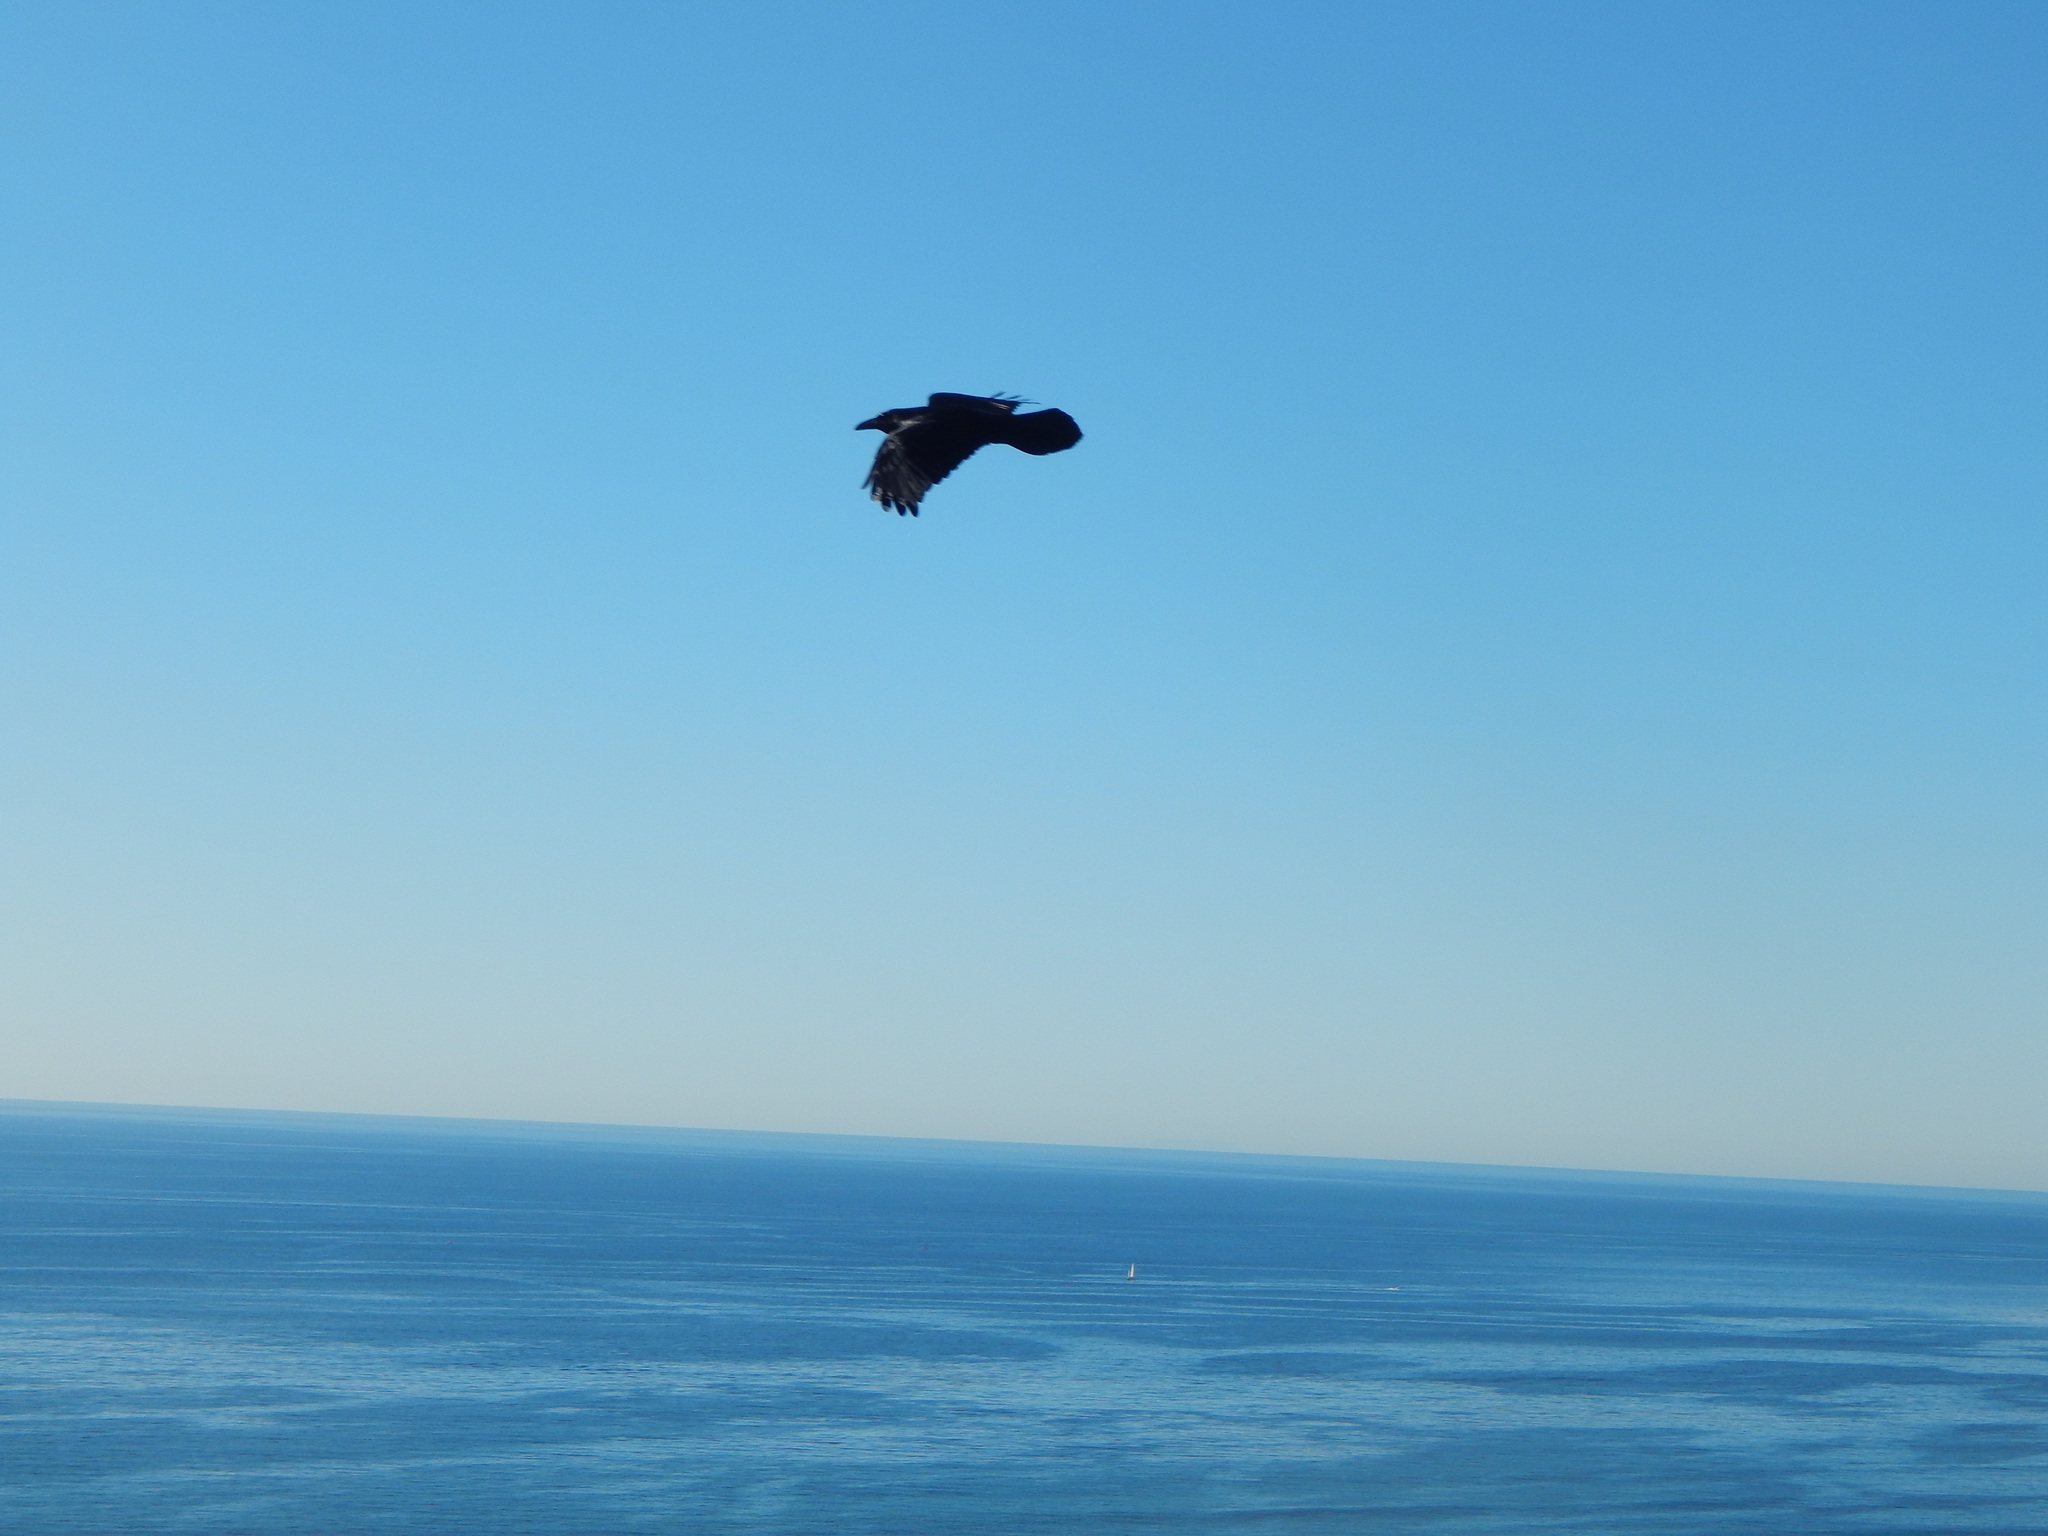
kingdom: Animalia
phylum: Chordata
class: Aves
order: Passeriformes
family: Corvidae
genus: Corvus
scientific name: Corvus corax
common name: Common raven
